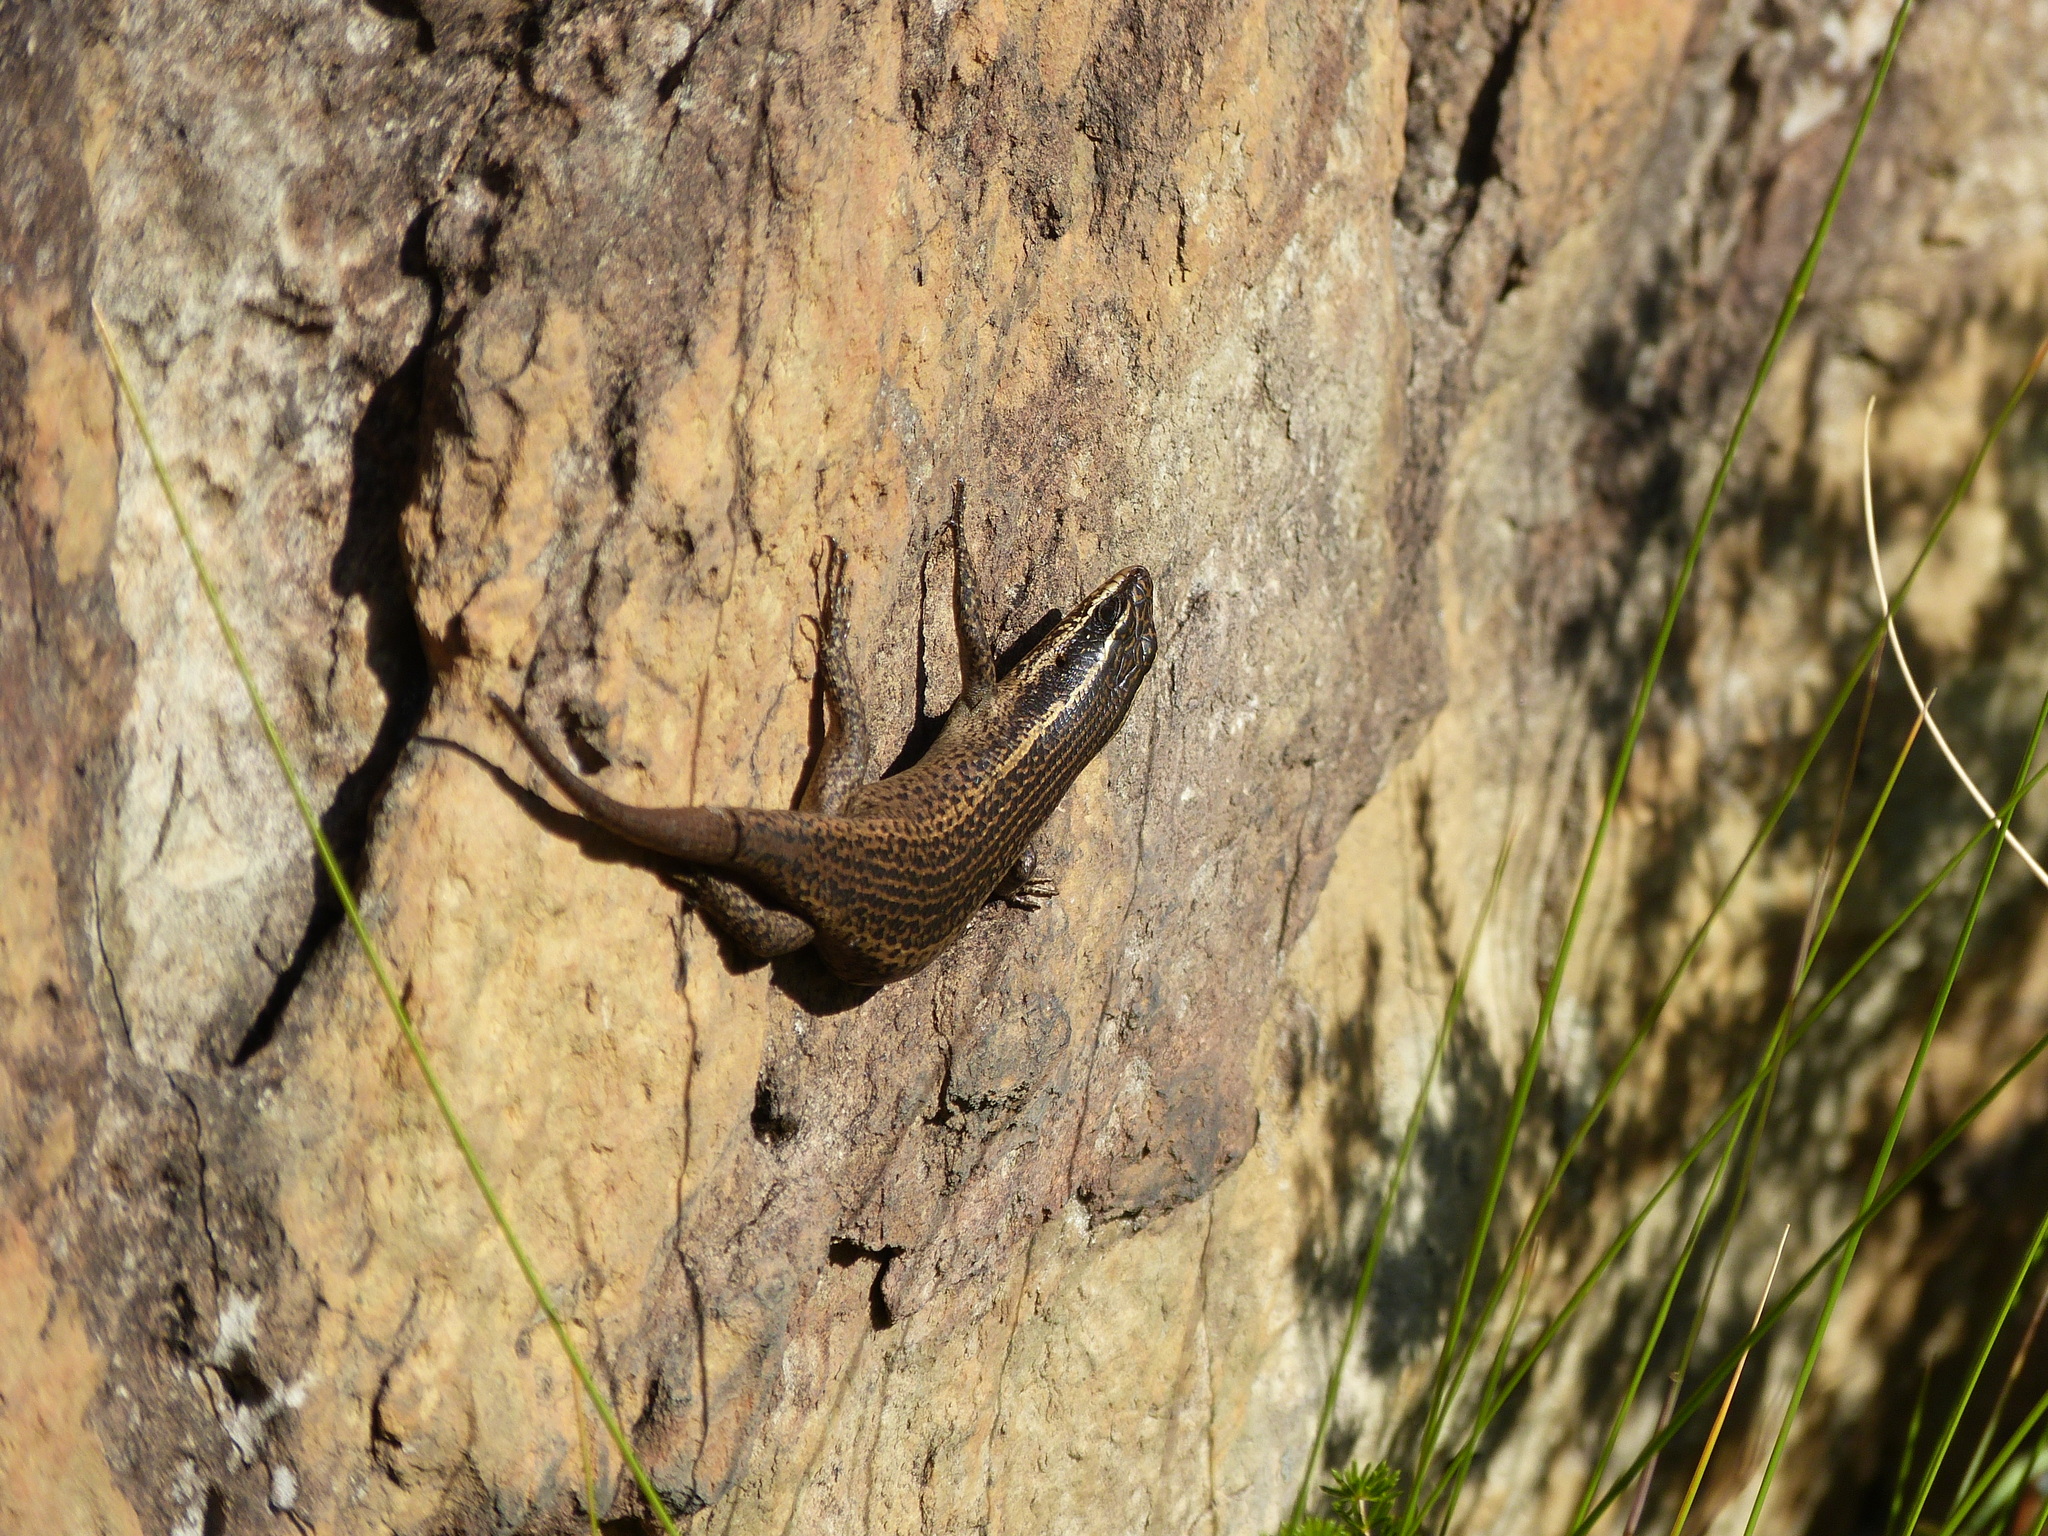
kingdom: Animalia
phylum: Chordata
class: Squamata
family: Scincidae
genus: Trachylepis
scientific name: Trachylepis punctatissima
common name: Montane speckled skink
